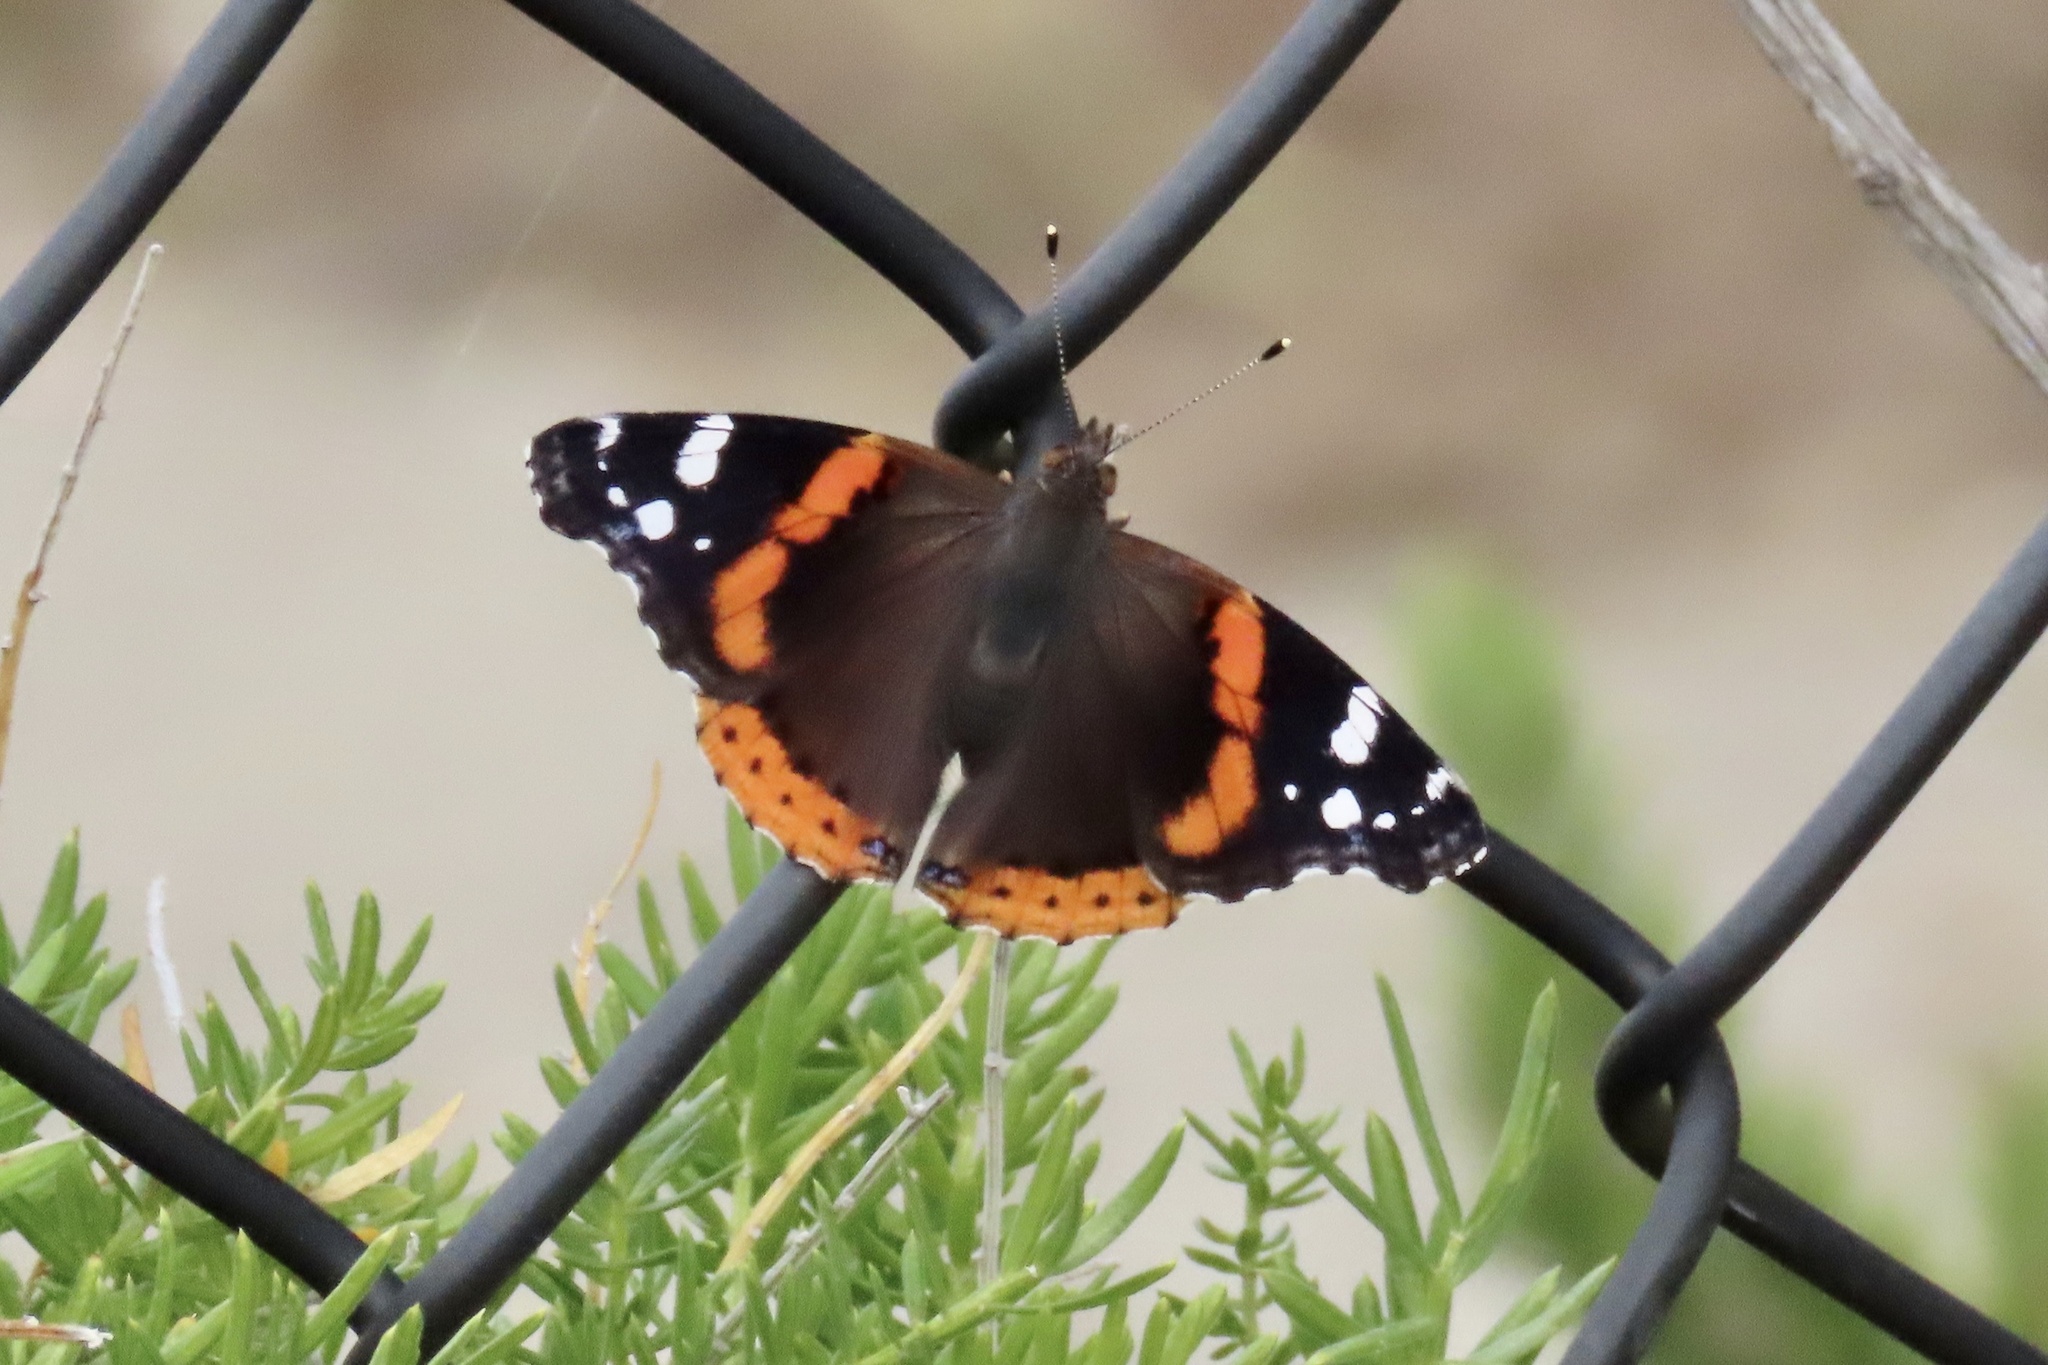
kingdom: Animalia
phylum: Arthropoda
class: Insecta
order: Lepidoptera
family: Nymphalidae
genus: Vanessa
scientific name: Vanessa atalanta
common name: Red admiral
